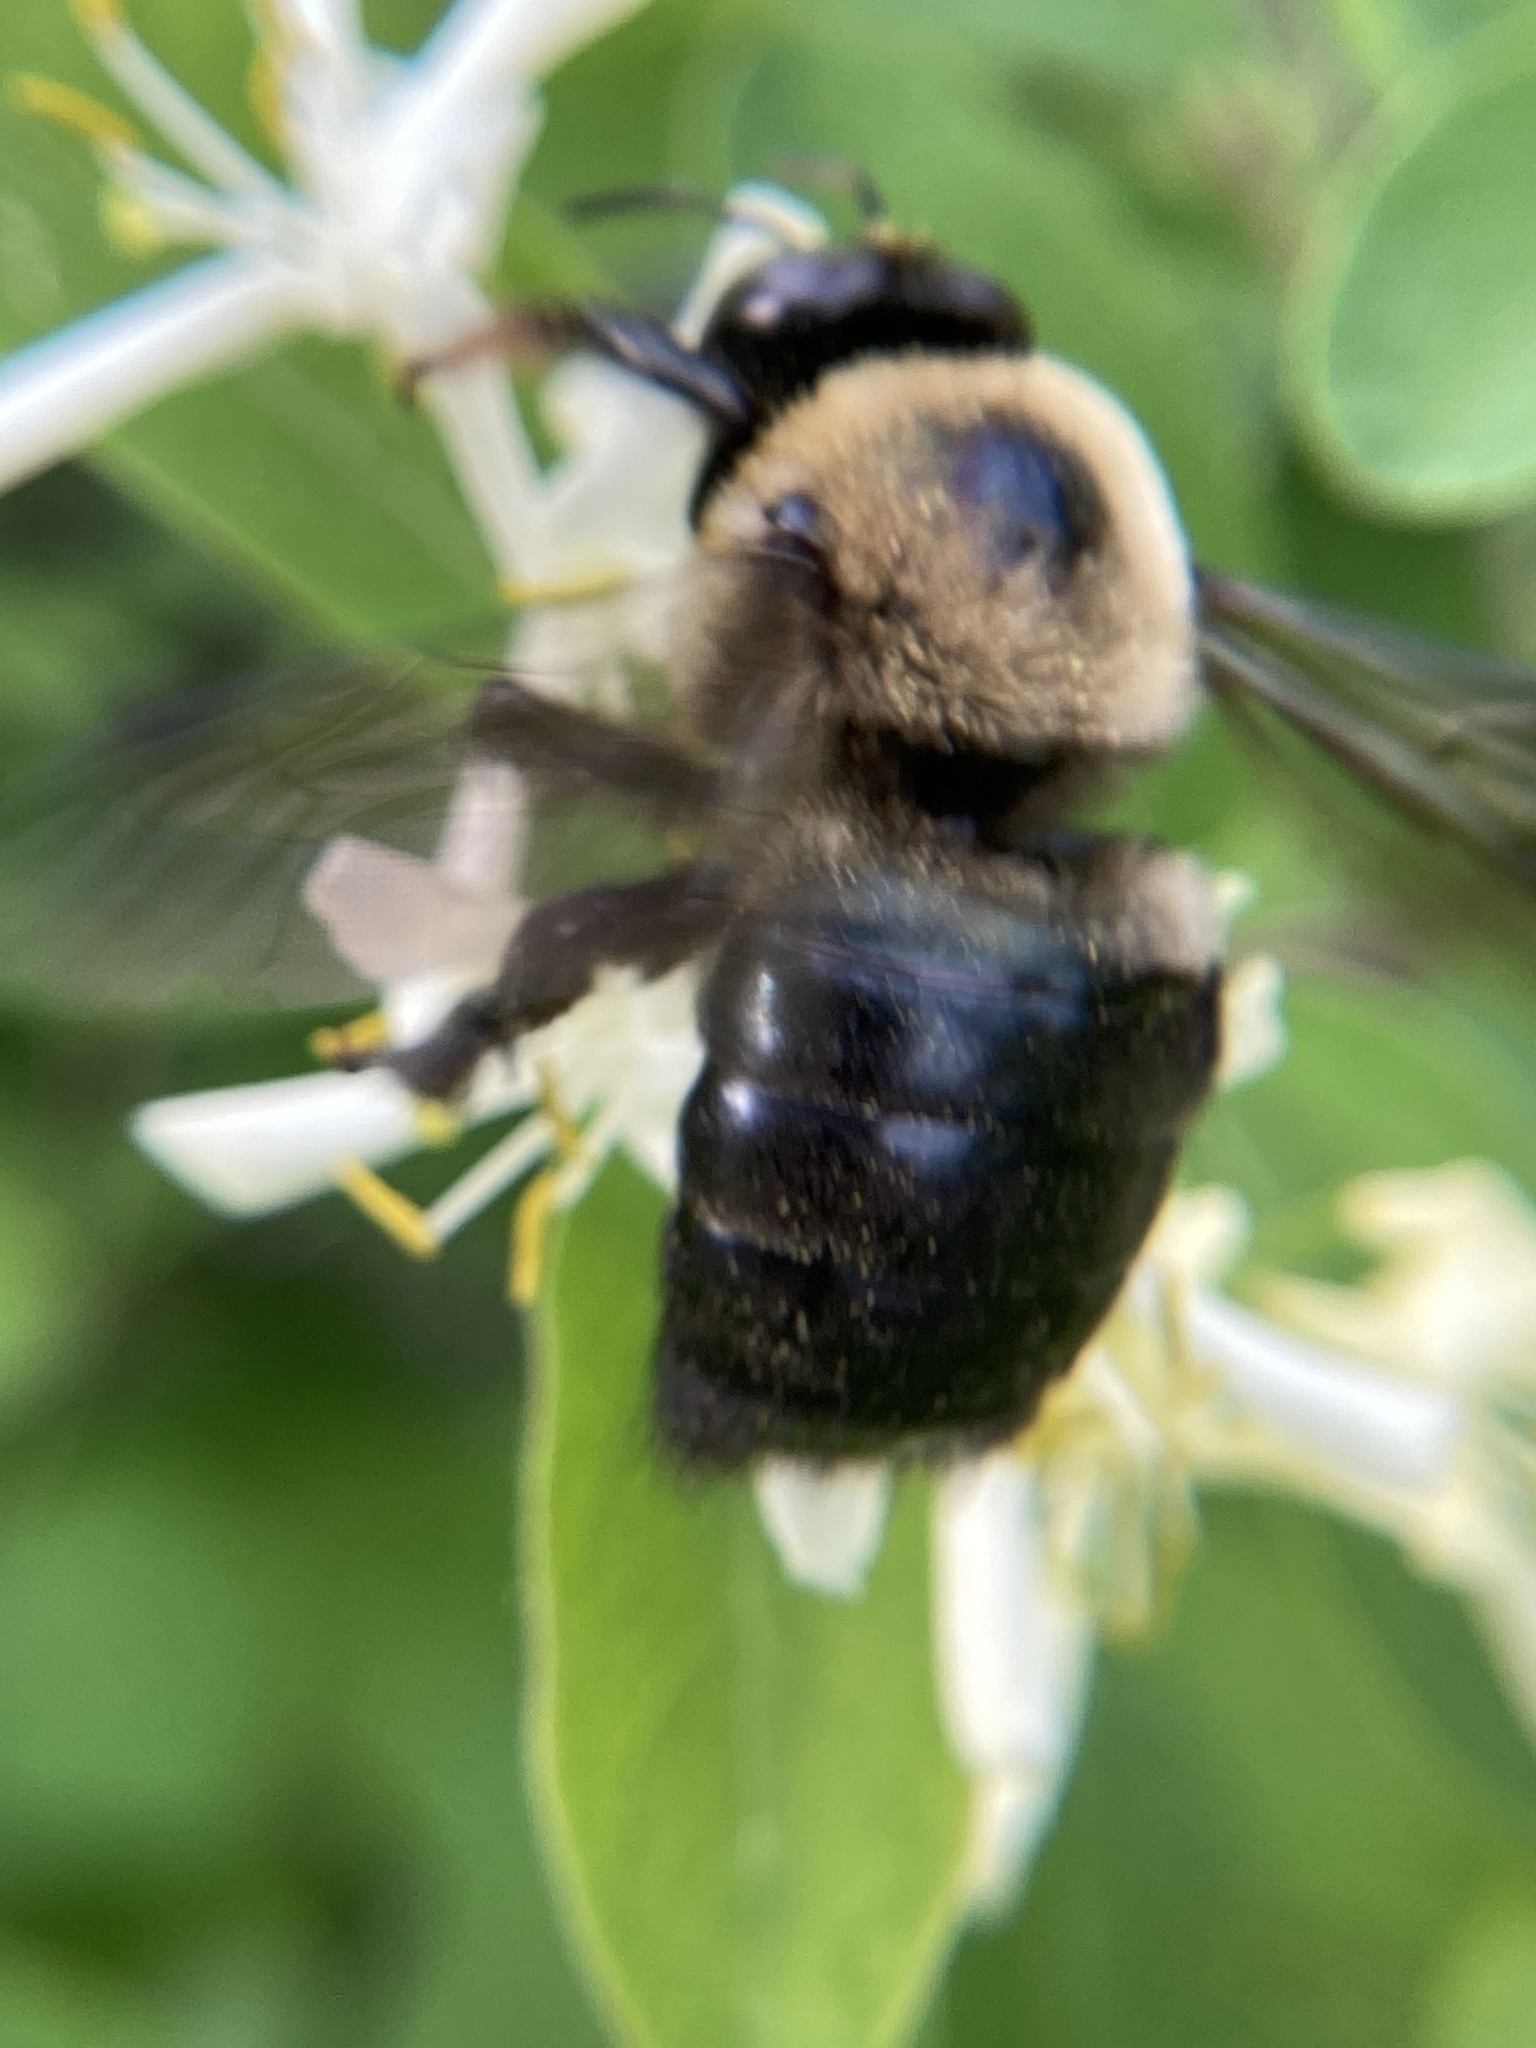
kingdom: Animalia
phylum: Arthropoda
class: Insecta
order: Hymenoptera
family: Apidae
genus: Xylocopa
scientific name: Xylocopa virginica
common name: Carpenter bee
